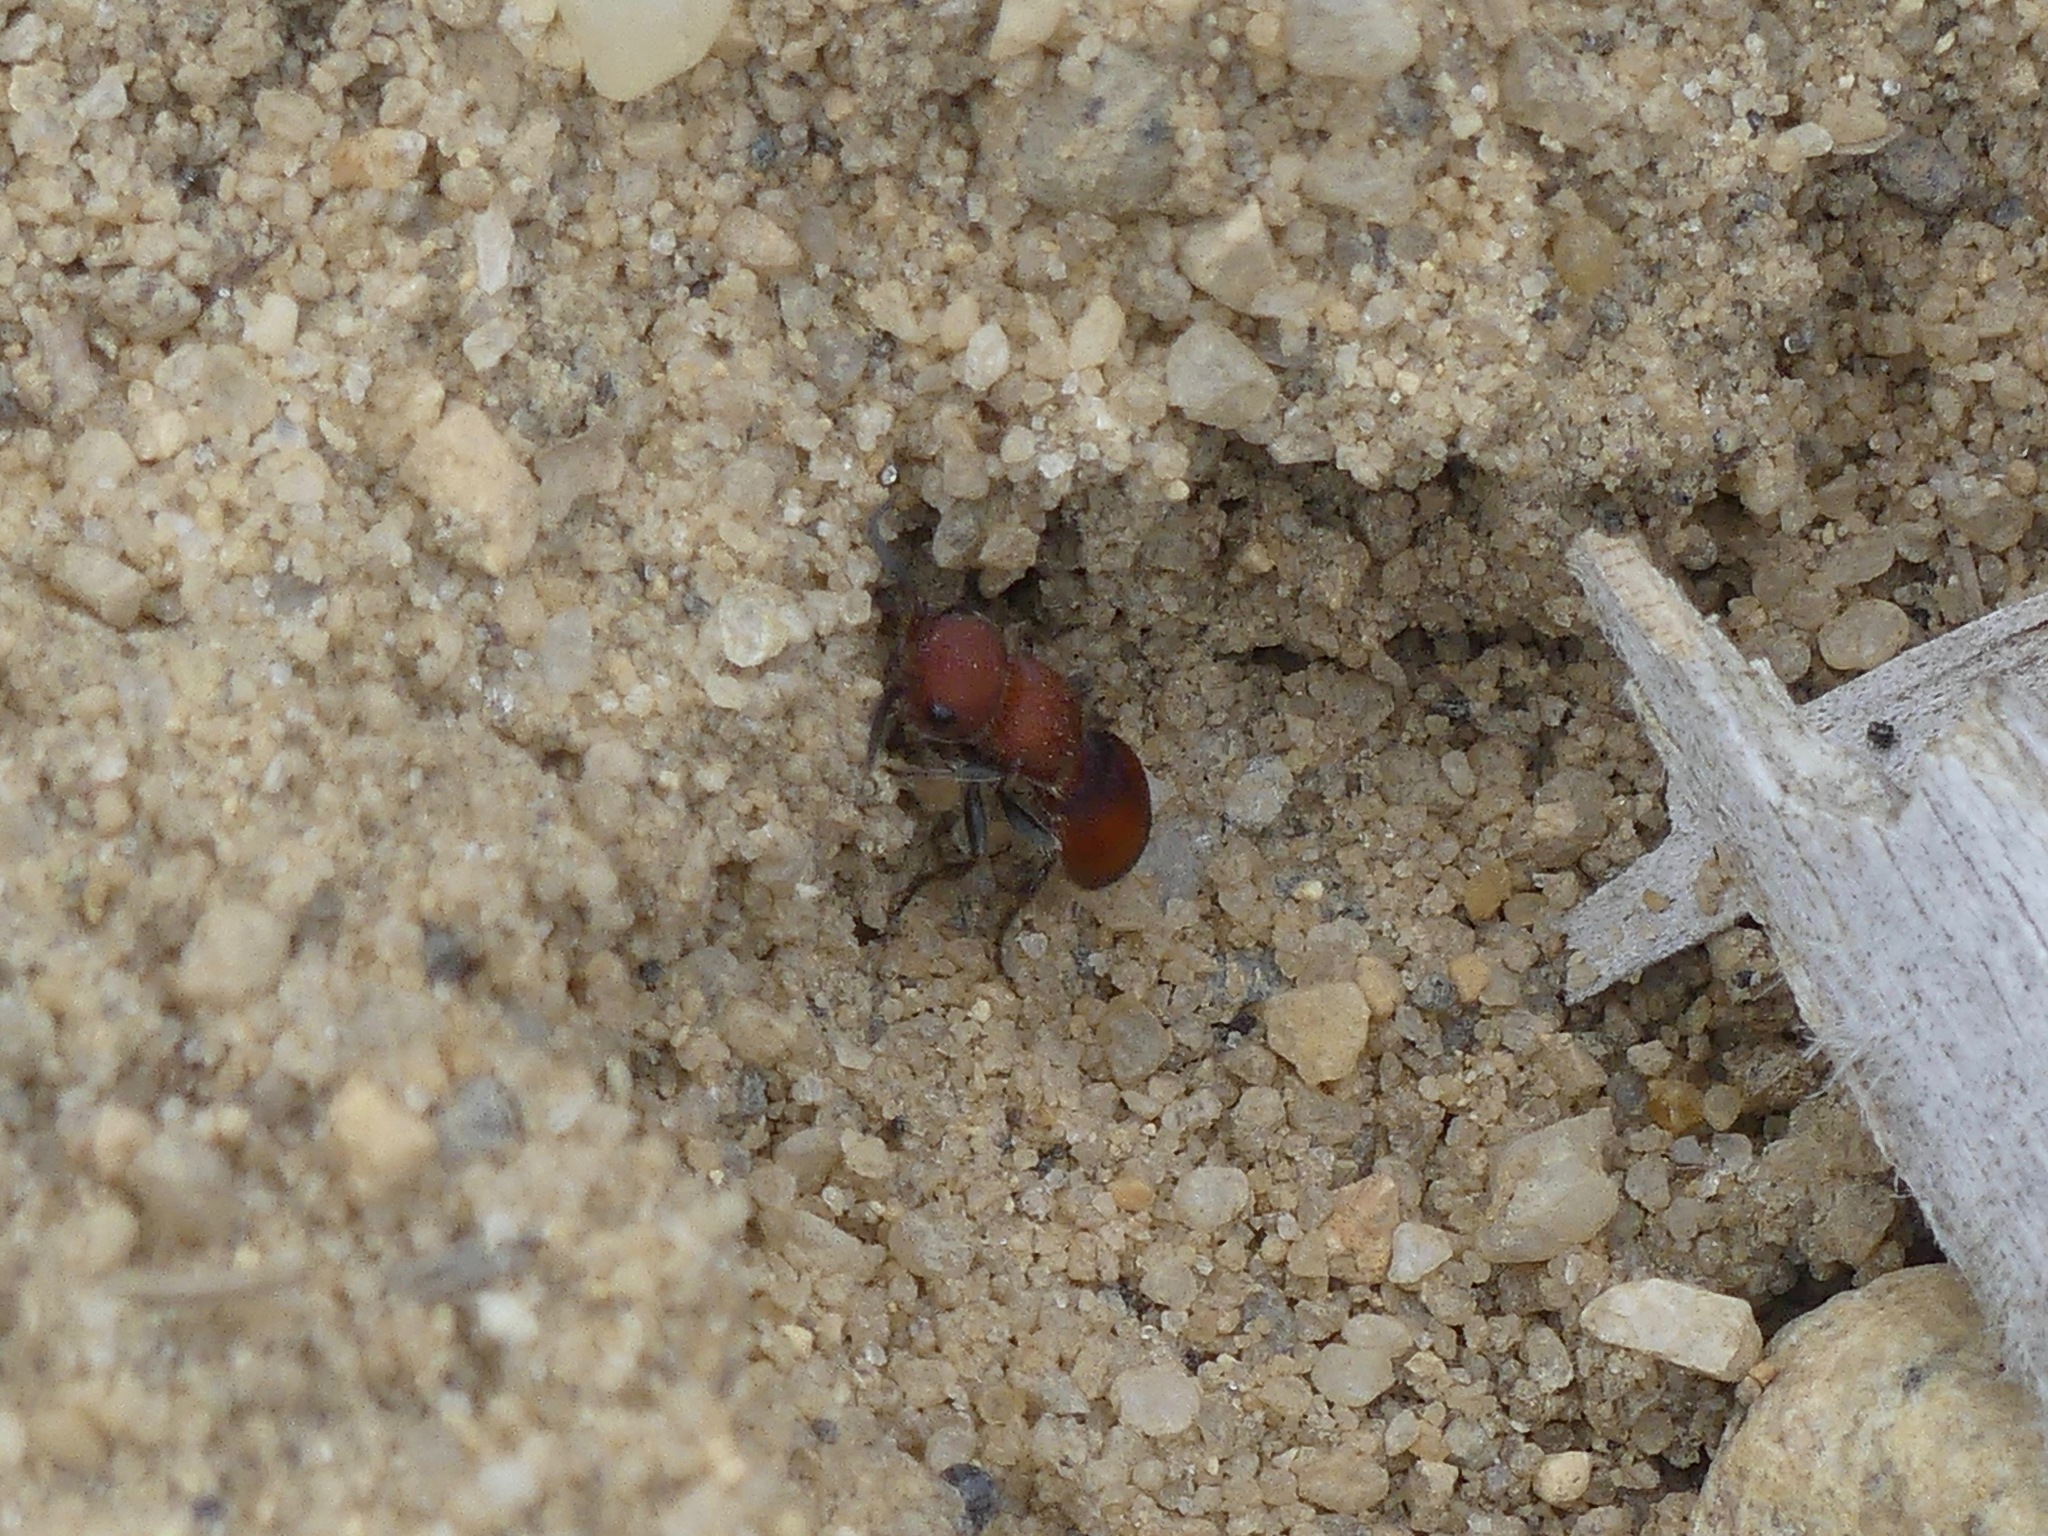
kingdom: Animalia
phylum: Arthropoda
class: Insecta
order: Hymenoptera
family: Mutillidae
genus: Pseudomethoca
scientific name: Pseudomethoca
